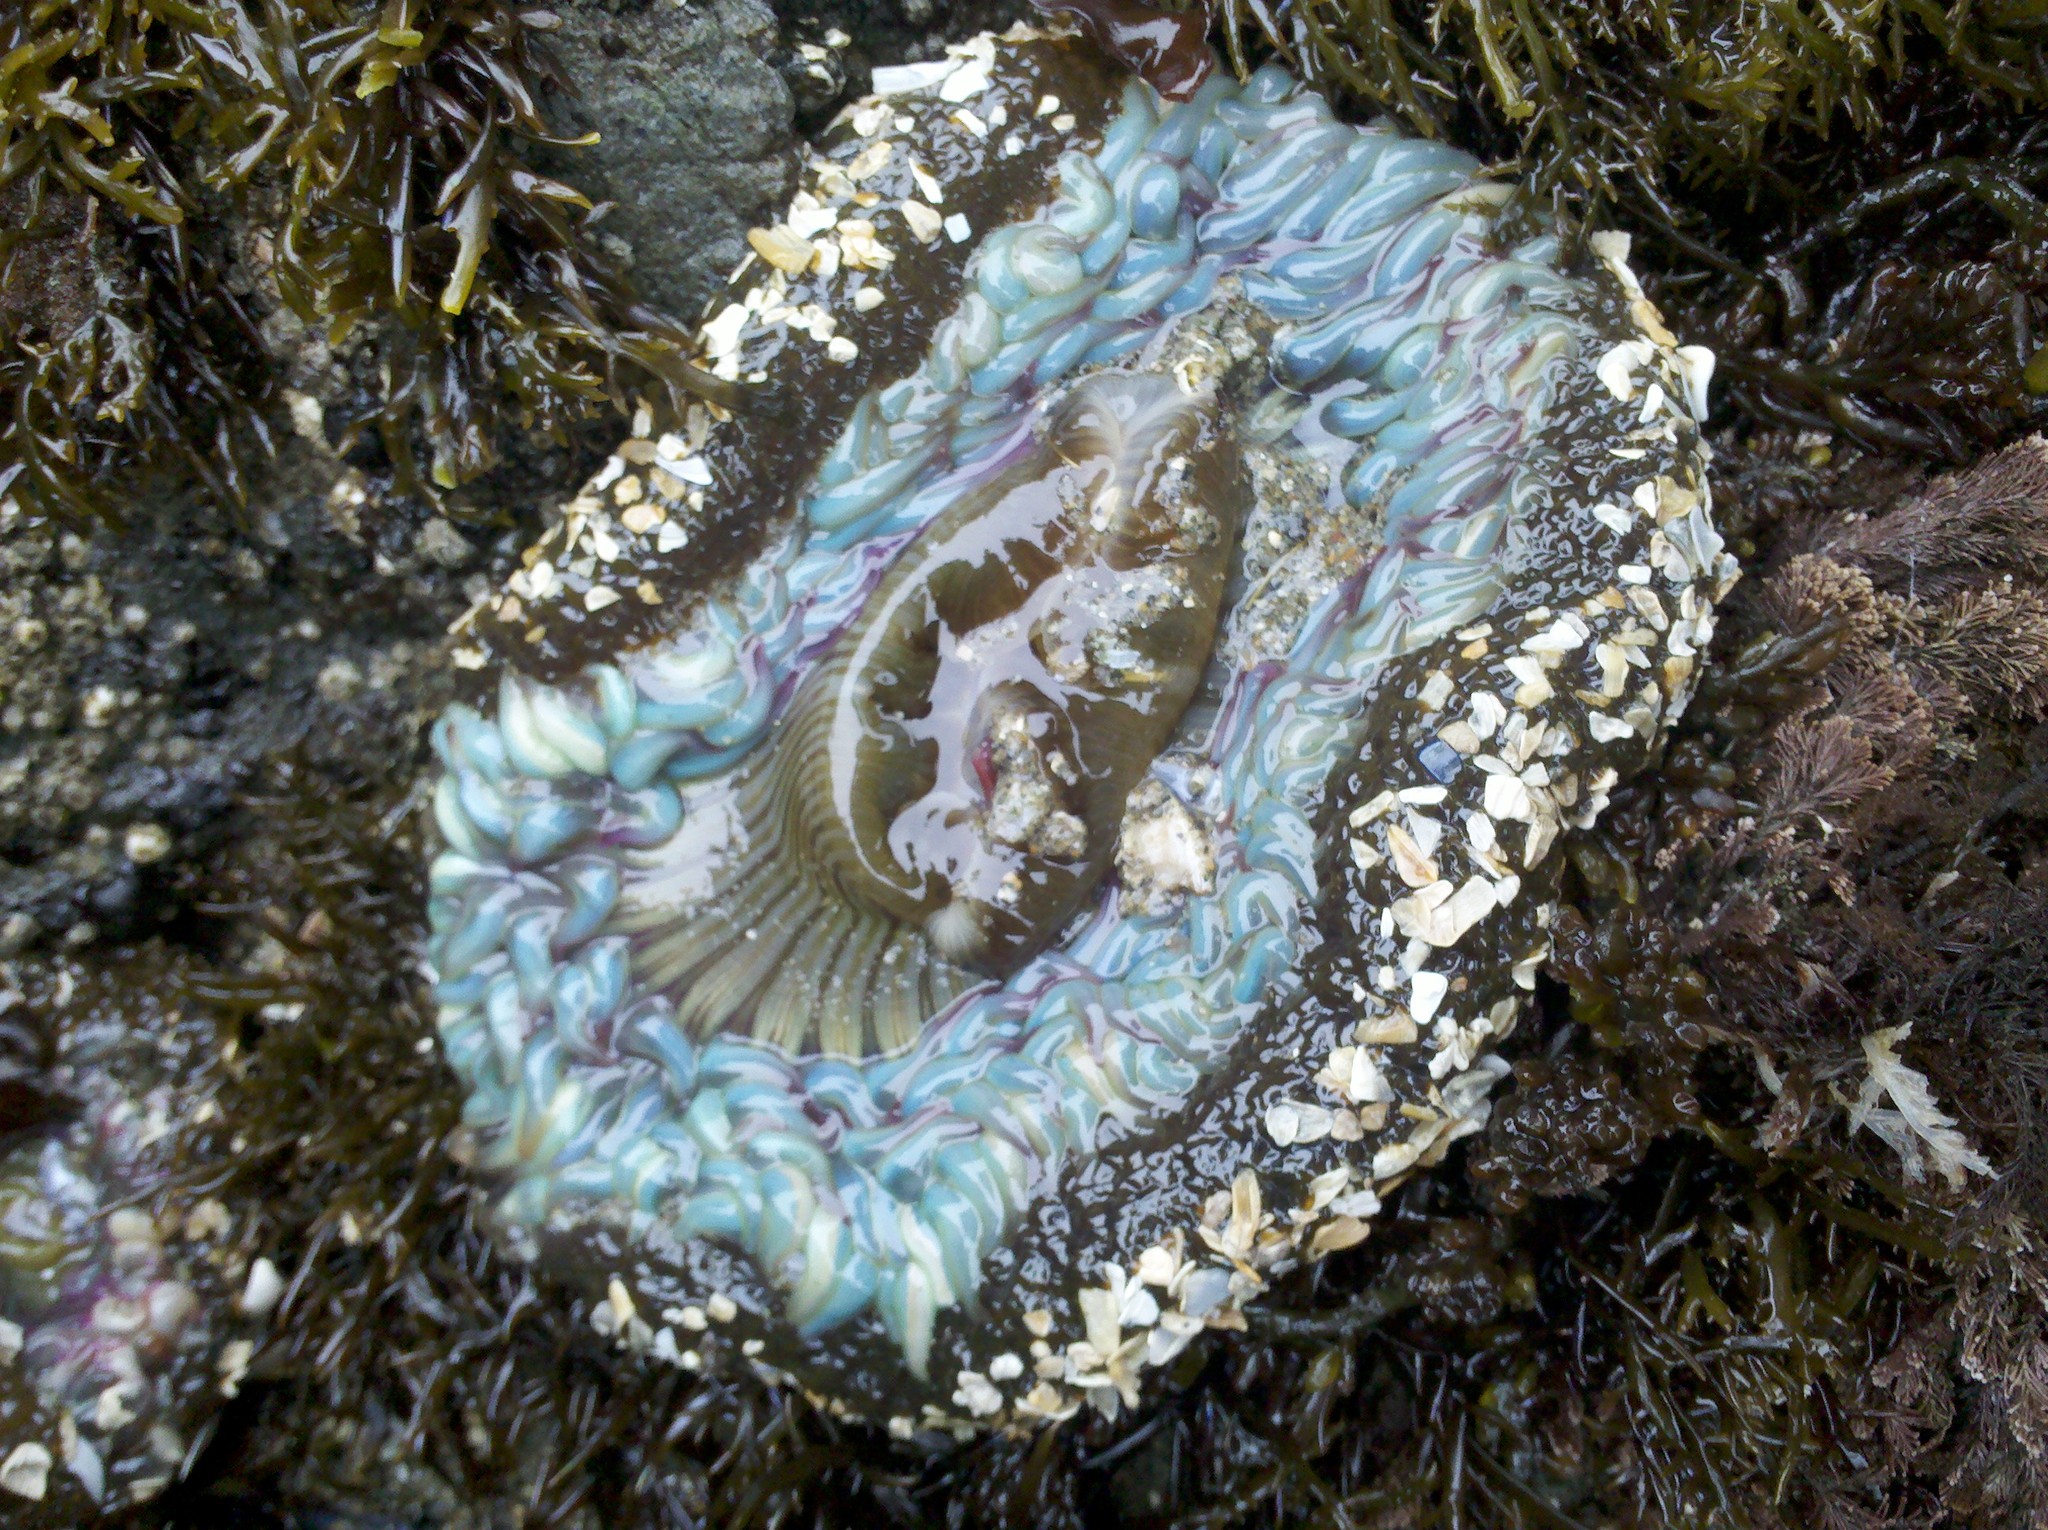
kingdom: Animalia
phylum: Cnidaria
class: Anthozoa
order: Actiniaria
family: Actiniidae
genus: Anthopleura
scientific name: Anthopleura sola
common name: Sun anemone
